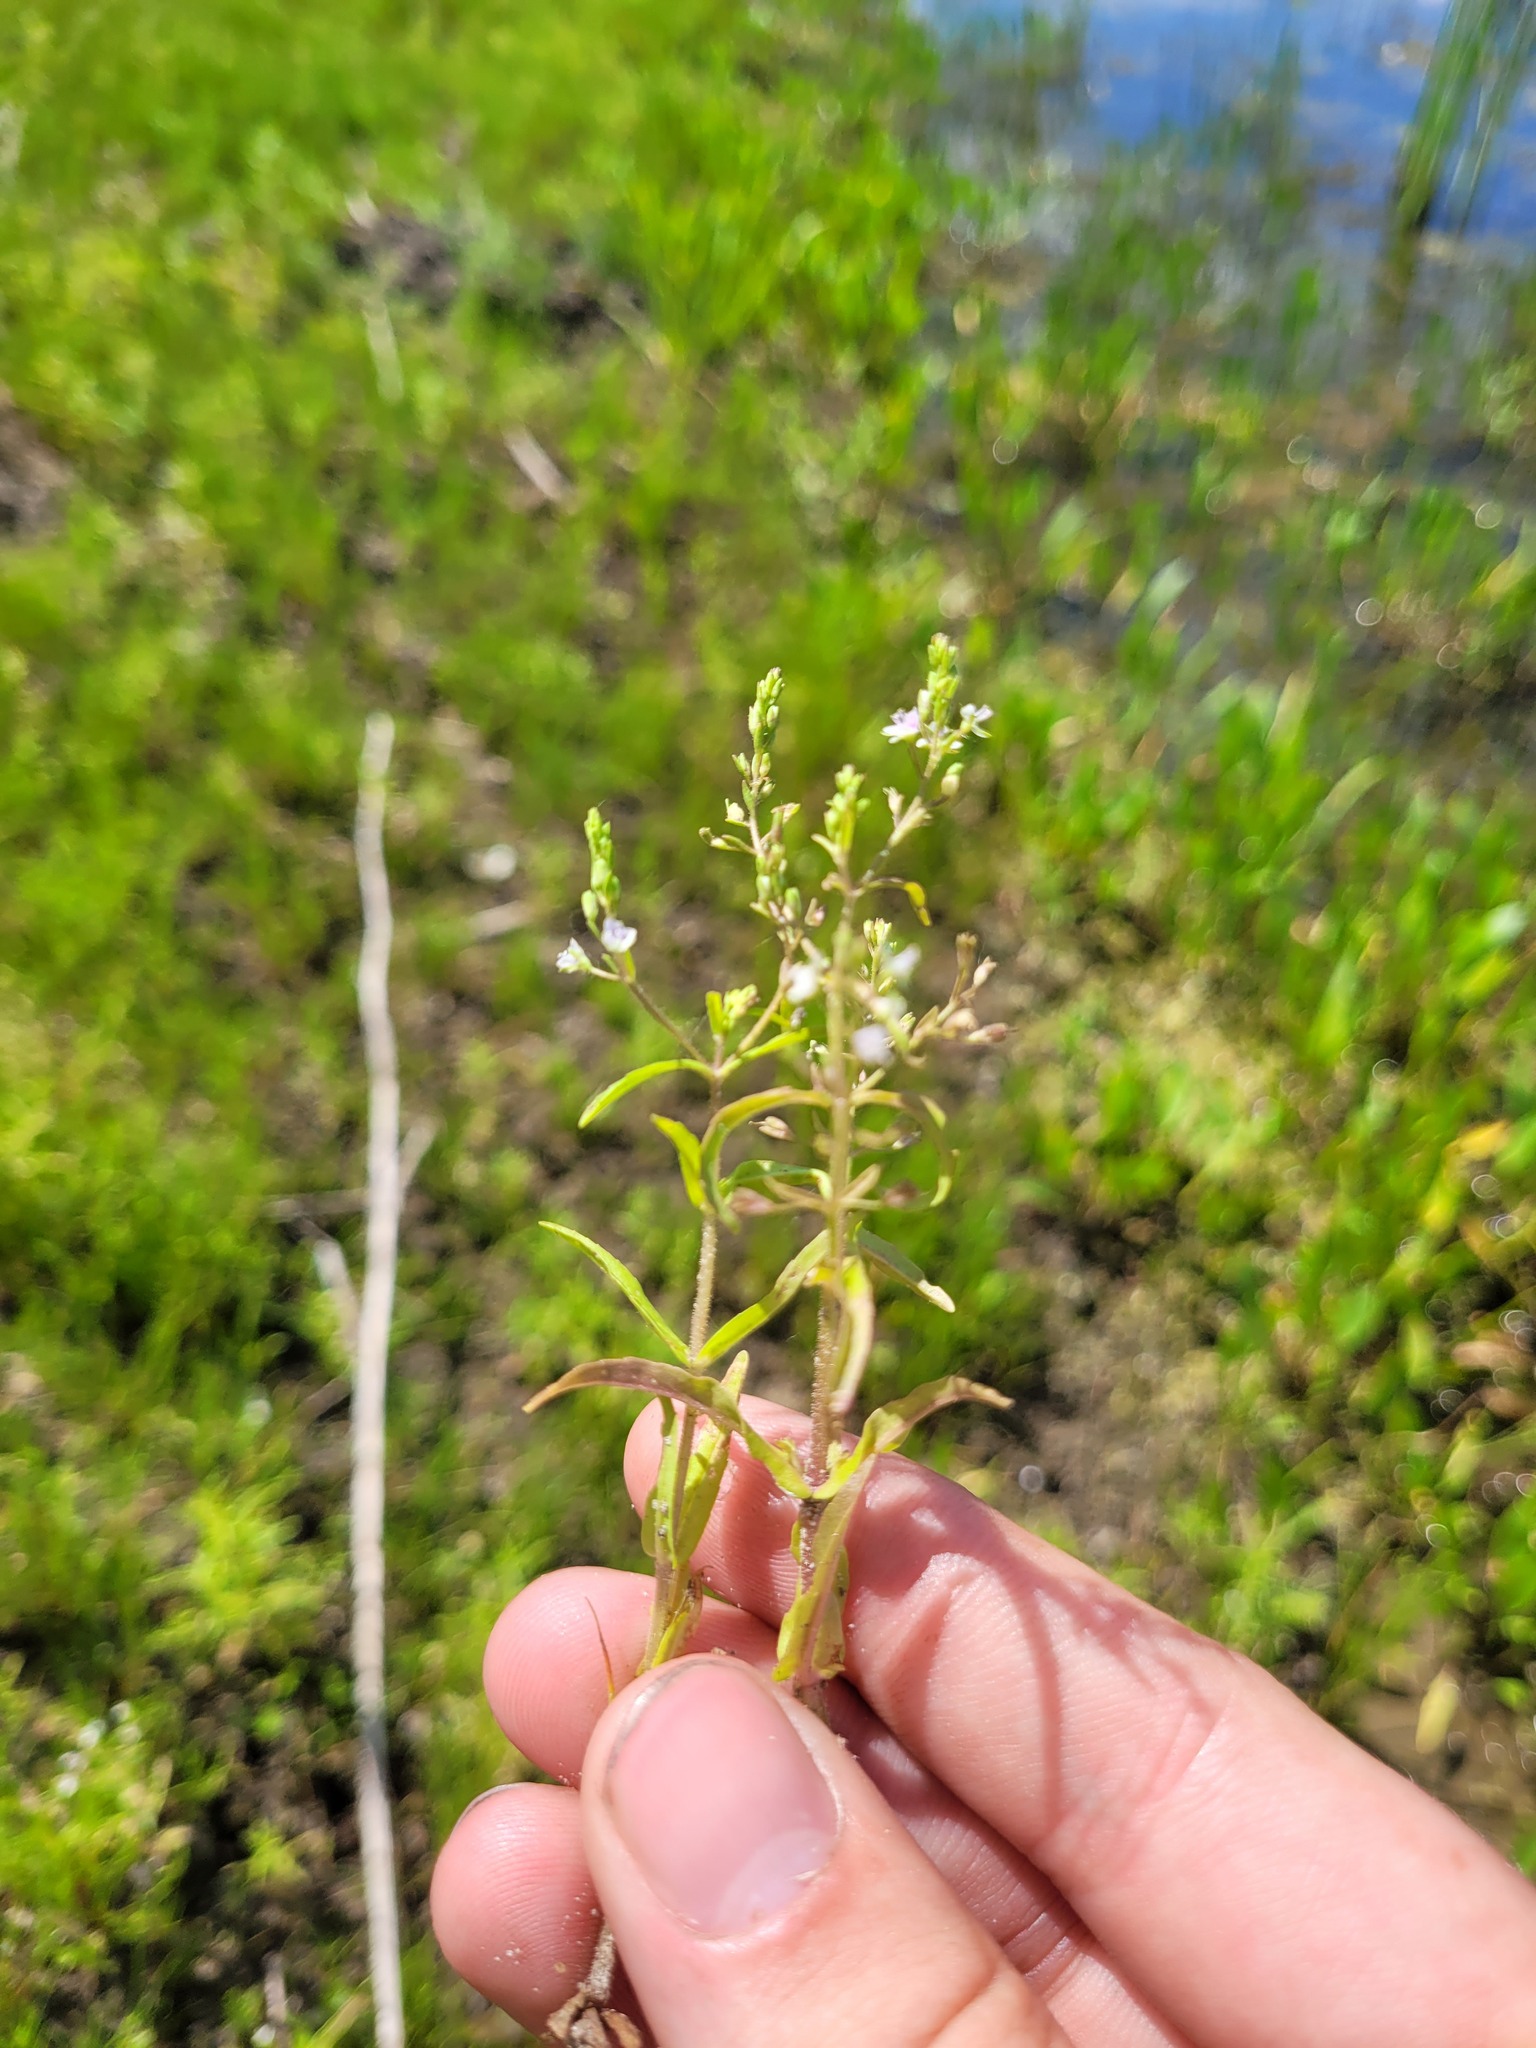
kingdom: Plantae
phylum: Tracheophyta
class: Magnoliopsida
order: Lamiales
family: Plantaginaceae
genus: Veronica
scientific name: Veronica anagalloides
